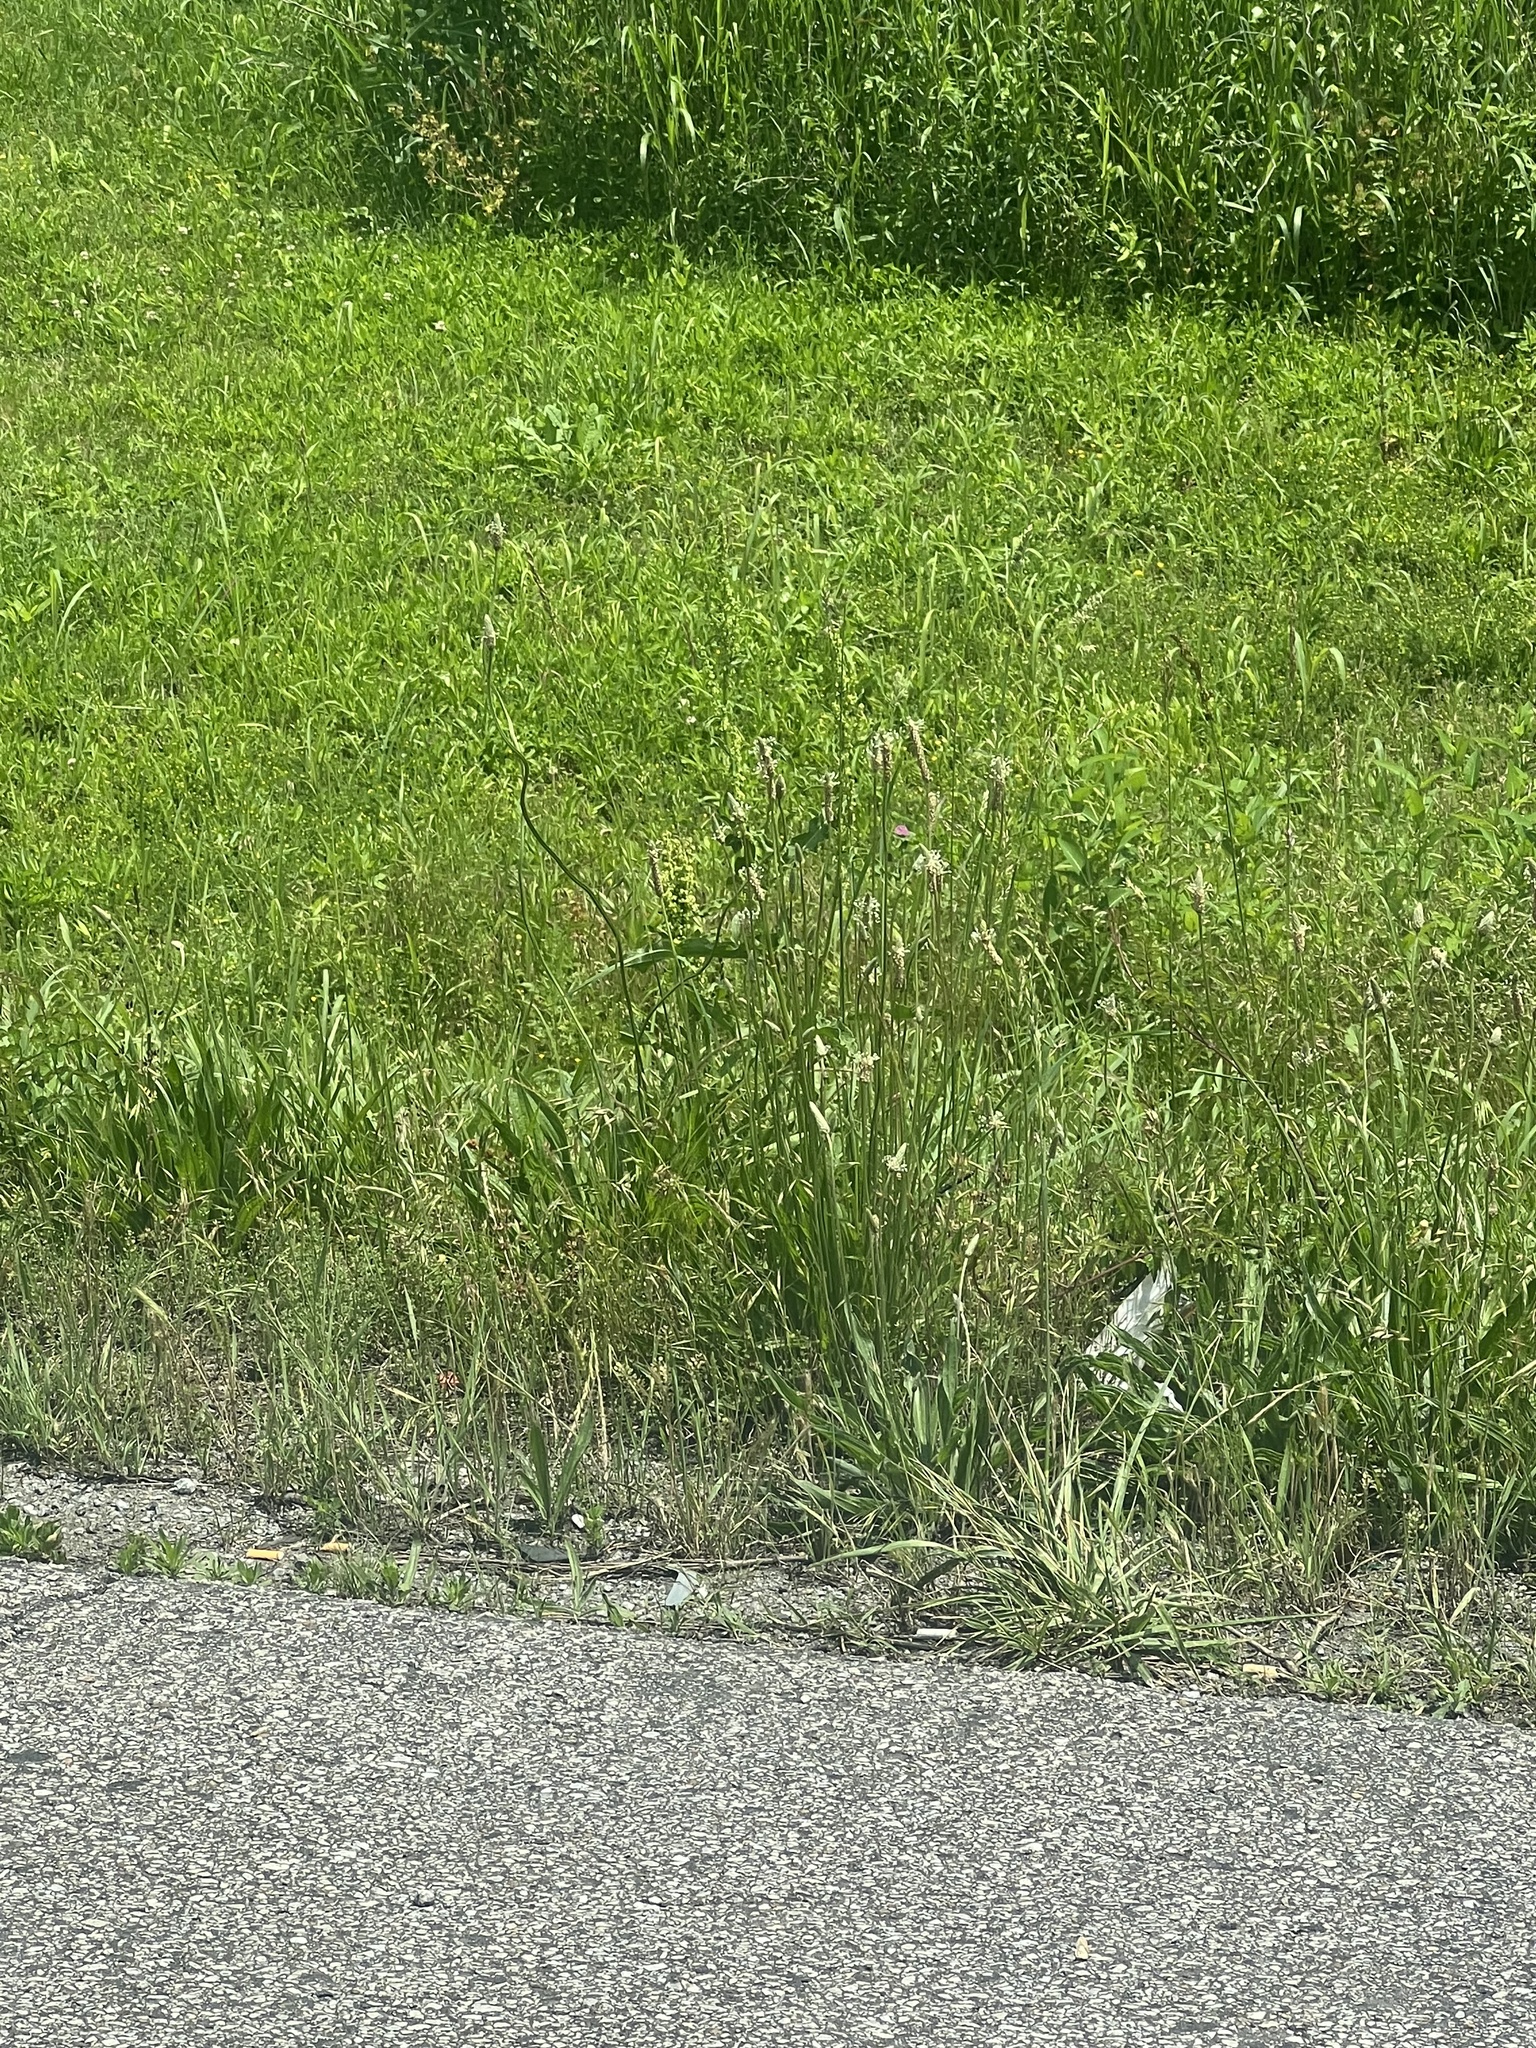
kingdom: Plantae
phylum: Tracheophyta
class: Magnoliopsida
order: Lamiales
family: Plantaginaceae
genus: Plantago
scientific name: Plantago lanceolata
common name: Ribwort plantain
